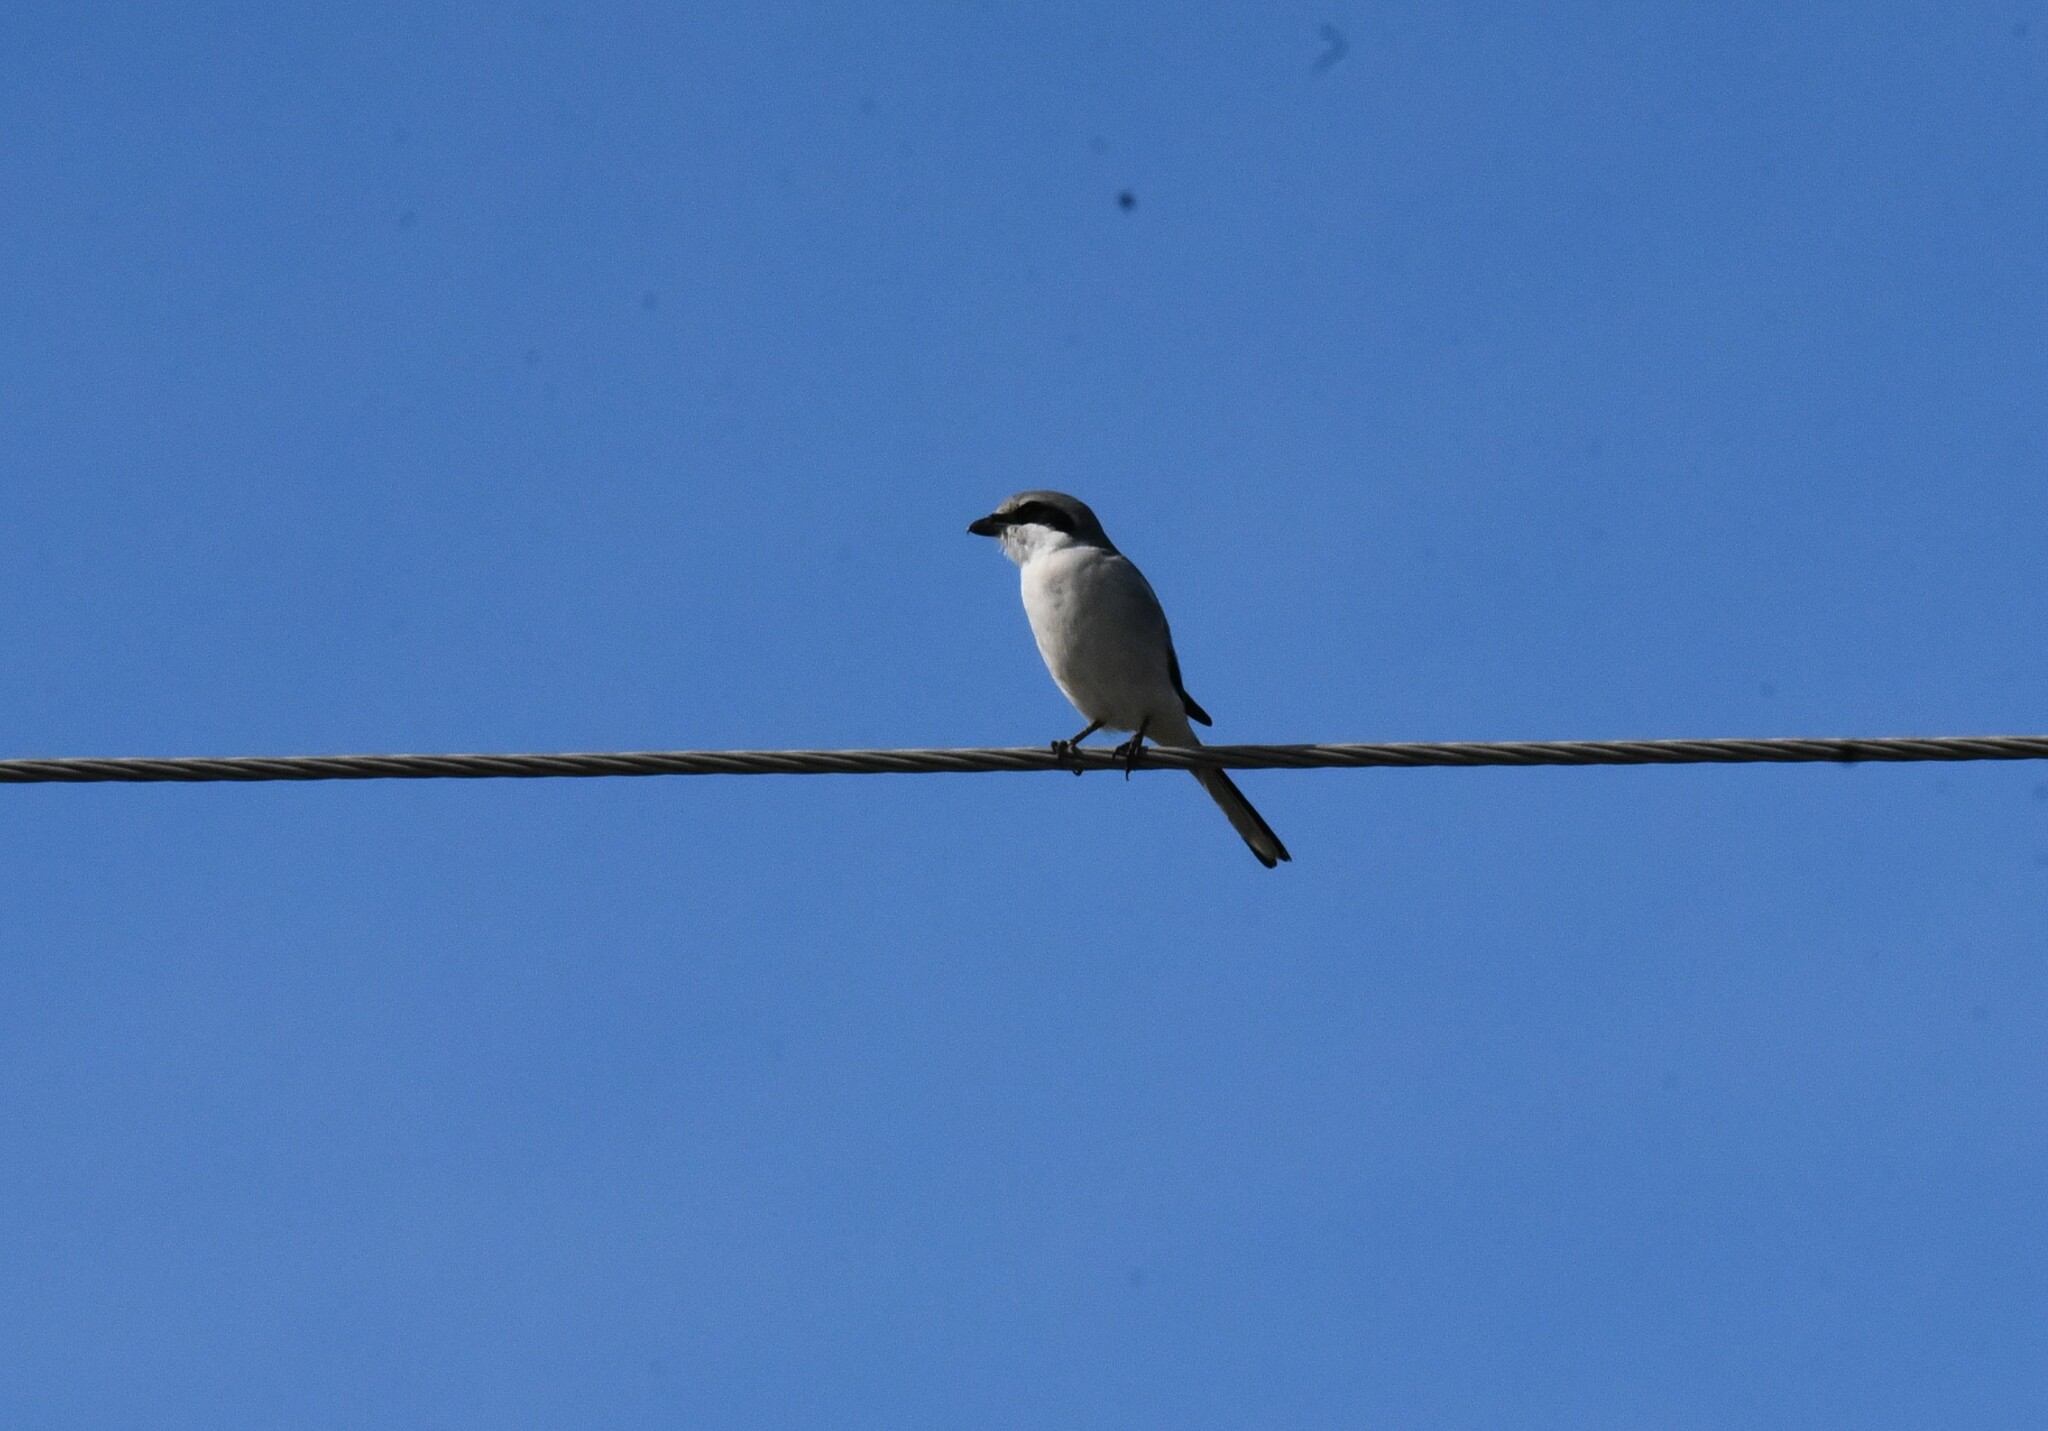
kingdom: Animalia
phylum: Chordata
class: Aves
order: Passeriformes
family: Laniidae
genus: Lanius
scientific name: Lanius ludovicianus
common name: Loggerhead shrike
